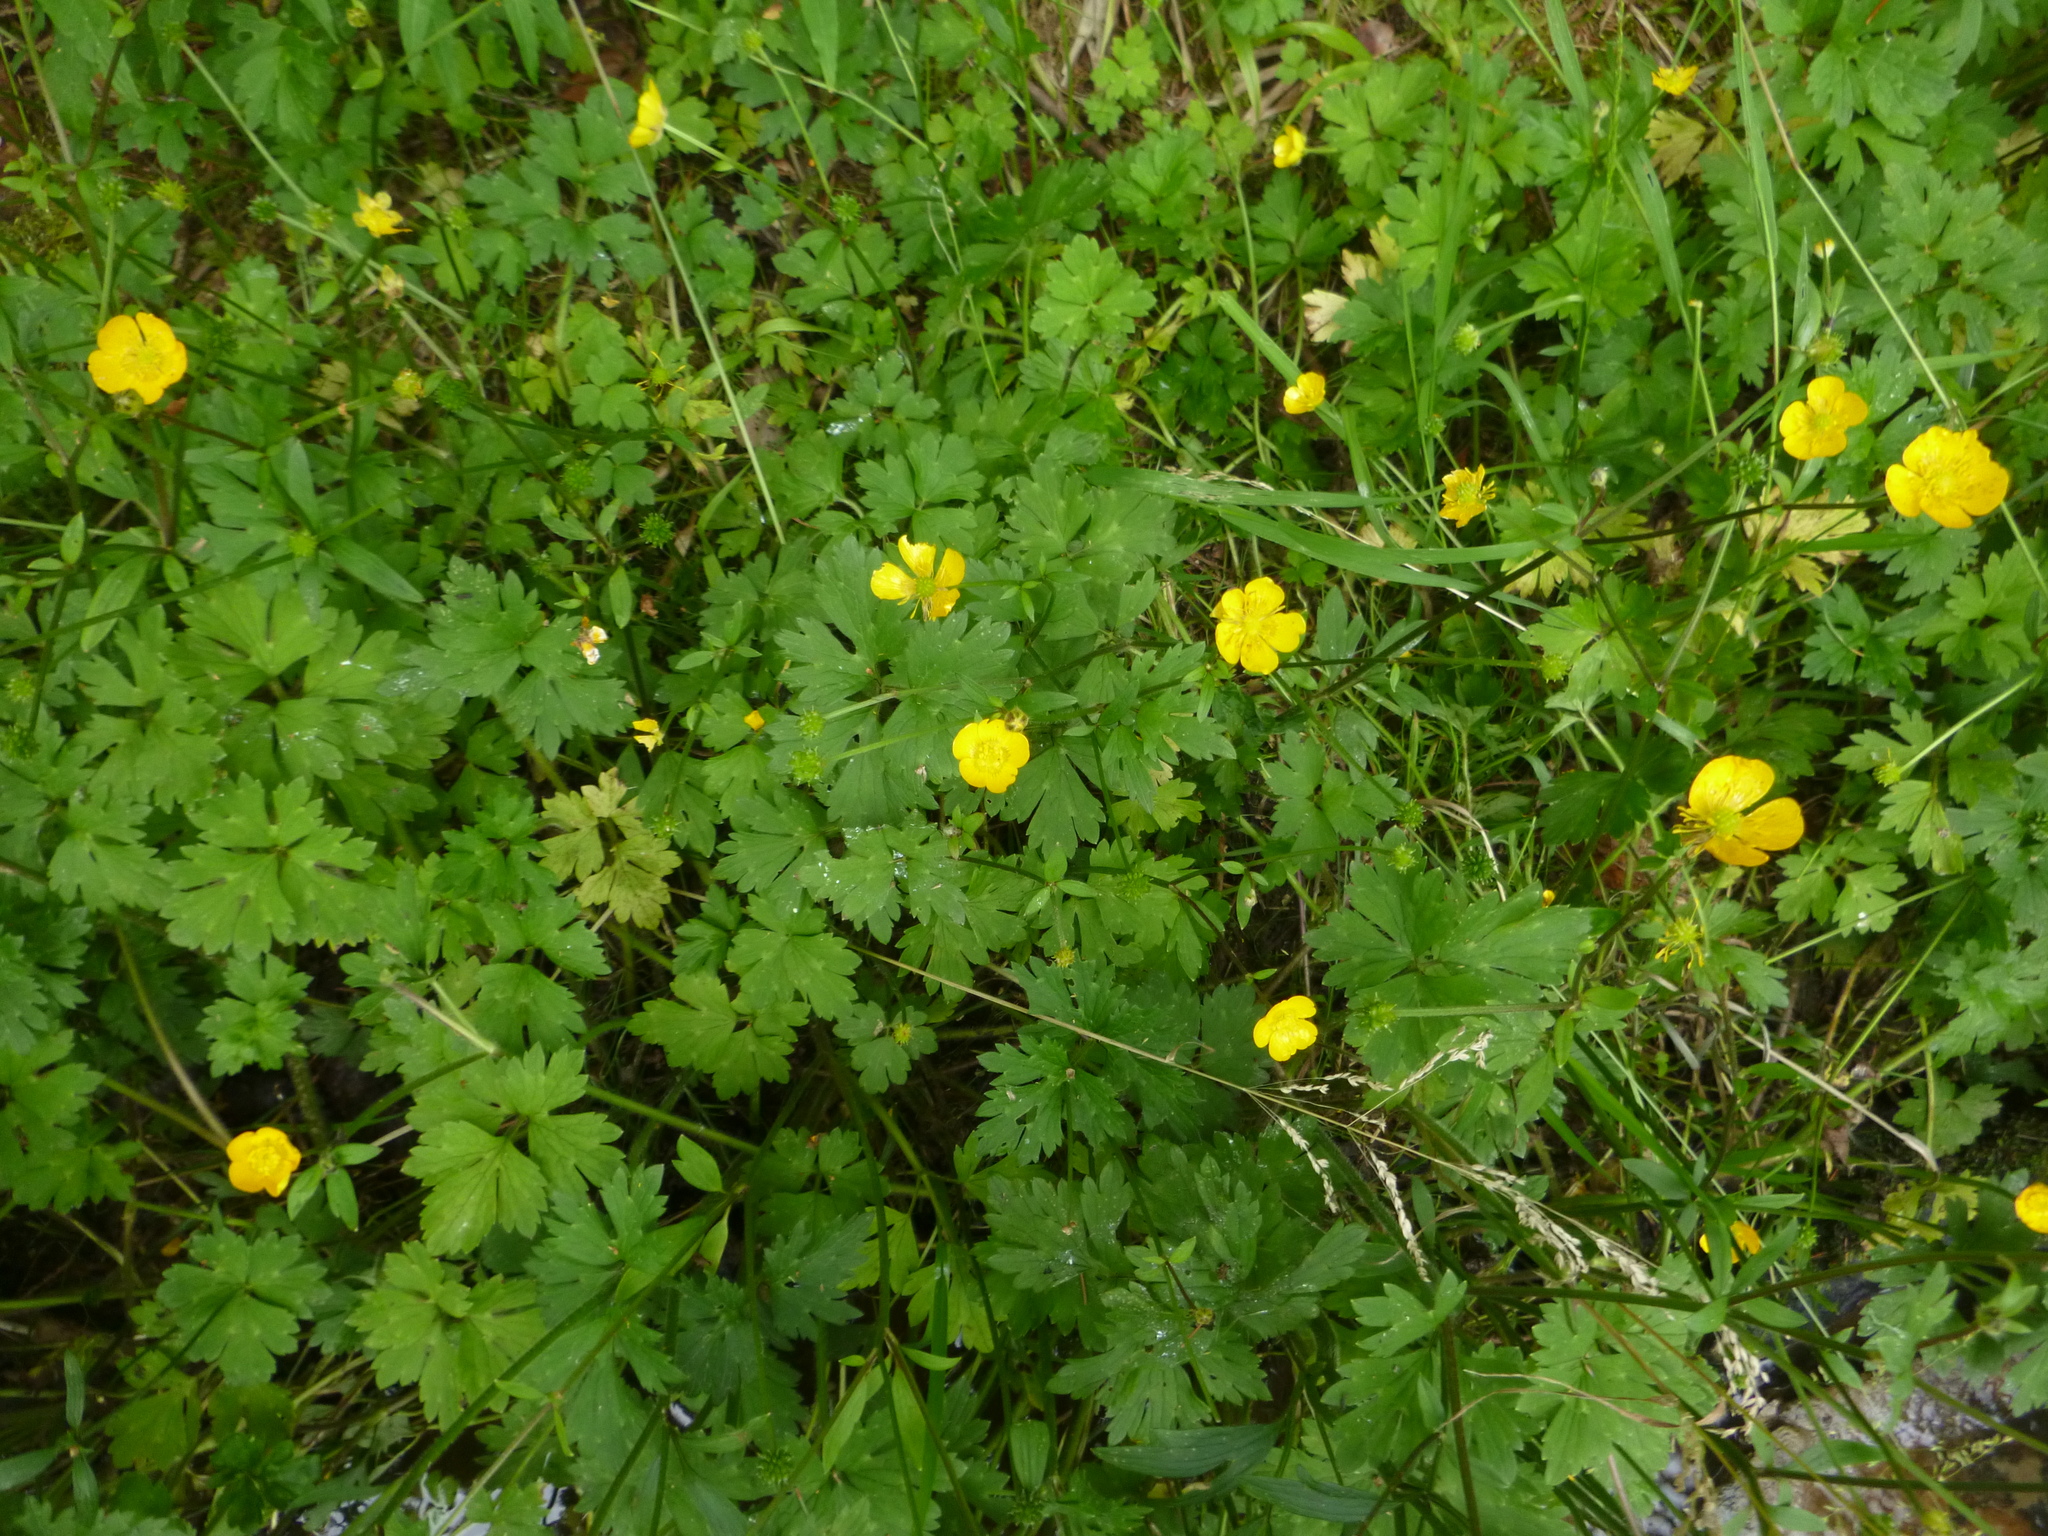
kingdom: Plantae
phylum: Tracheophyta
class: Magnoliopsida
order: Ranunculales
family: Ranunculaceae
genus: Ranunculus
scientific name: Ranunculus repens
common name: Creeping buttercup
